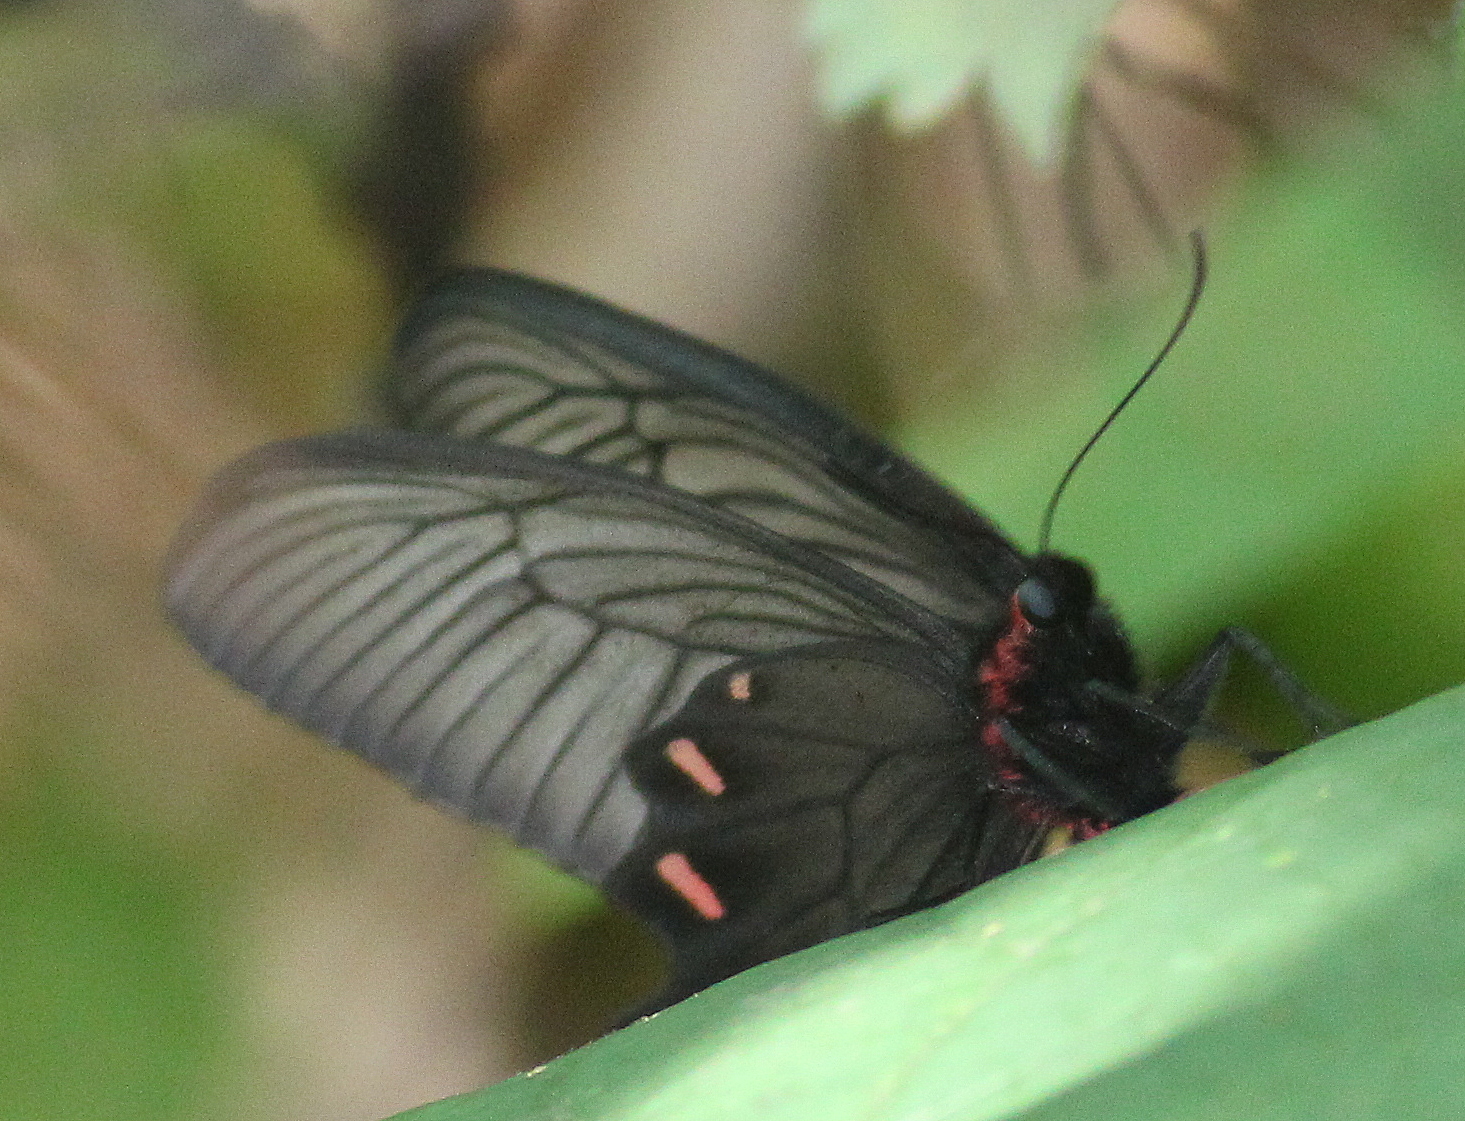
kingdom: Animalia
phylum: Arthropoda
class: Insecta
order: Lepidoptera
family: Papilionidae
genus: Byasa
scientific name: Byasa alcinous
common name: Chinese windmill
